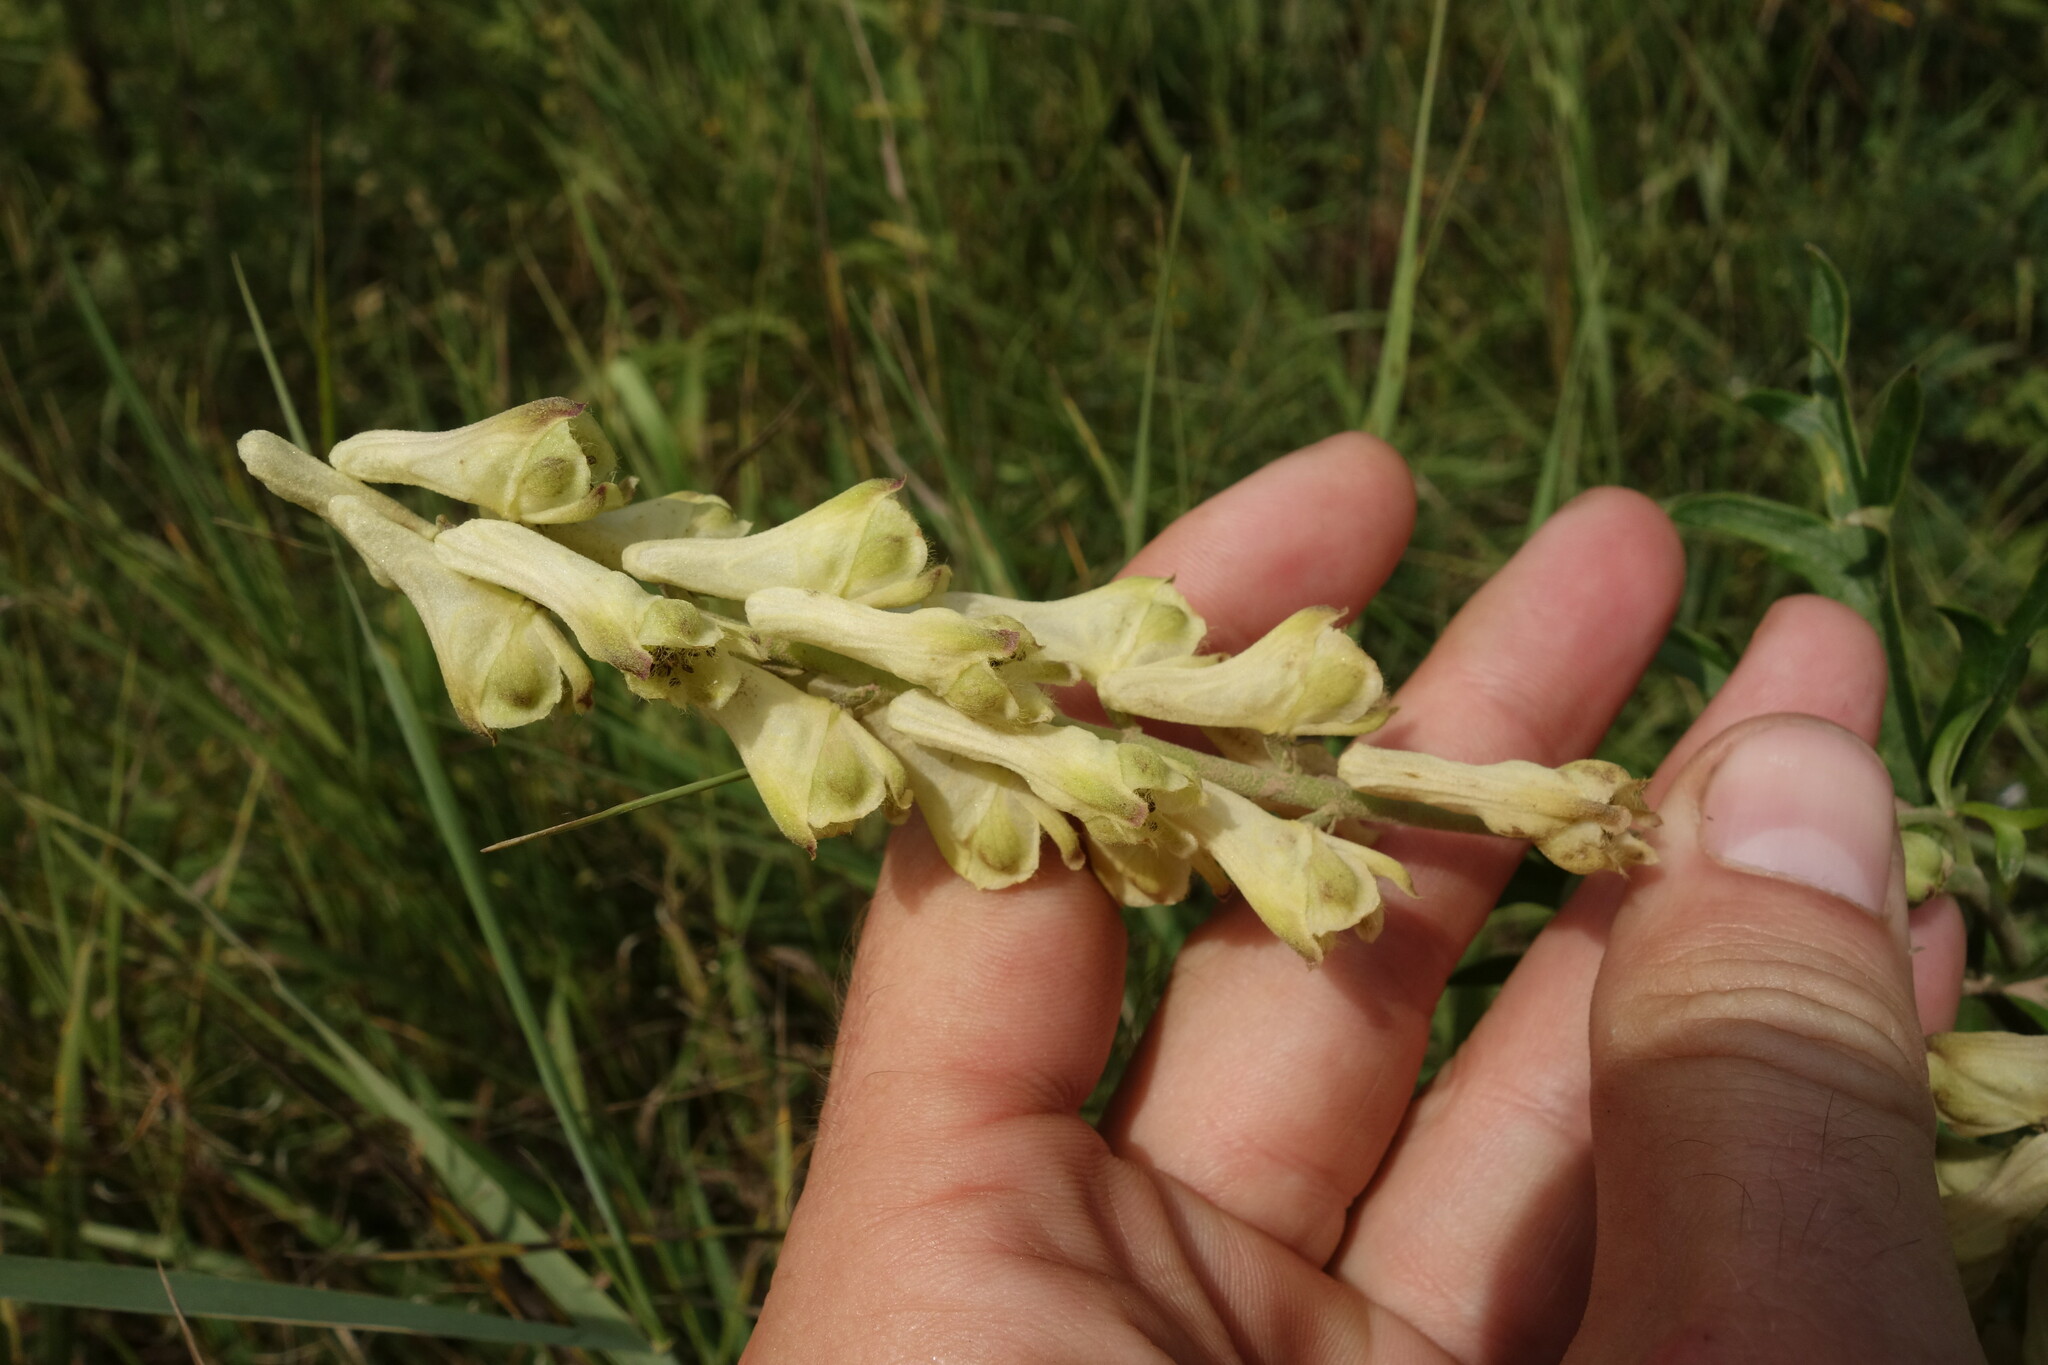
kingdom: Plantae
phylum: Tracheophyta
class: Magnoliopsida
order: Ranunculales
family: Ranunculaceae
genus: Aconitum
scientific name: Aconitum barbatum
